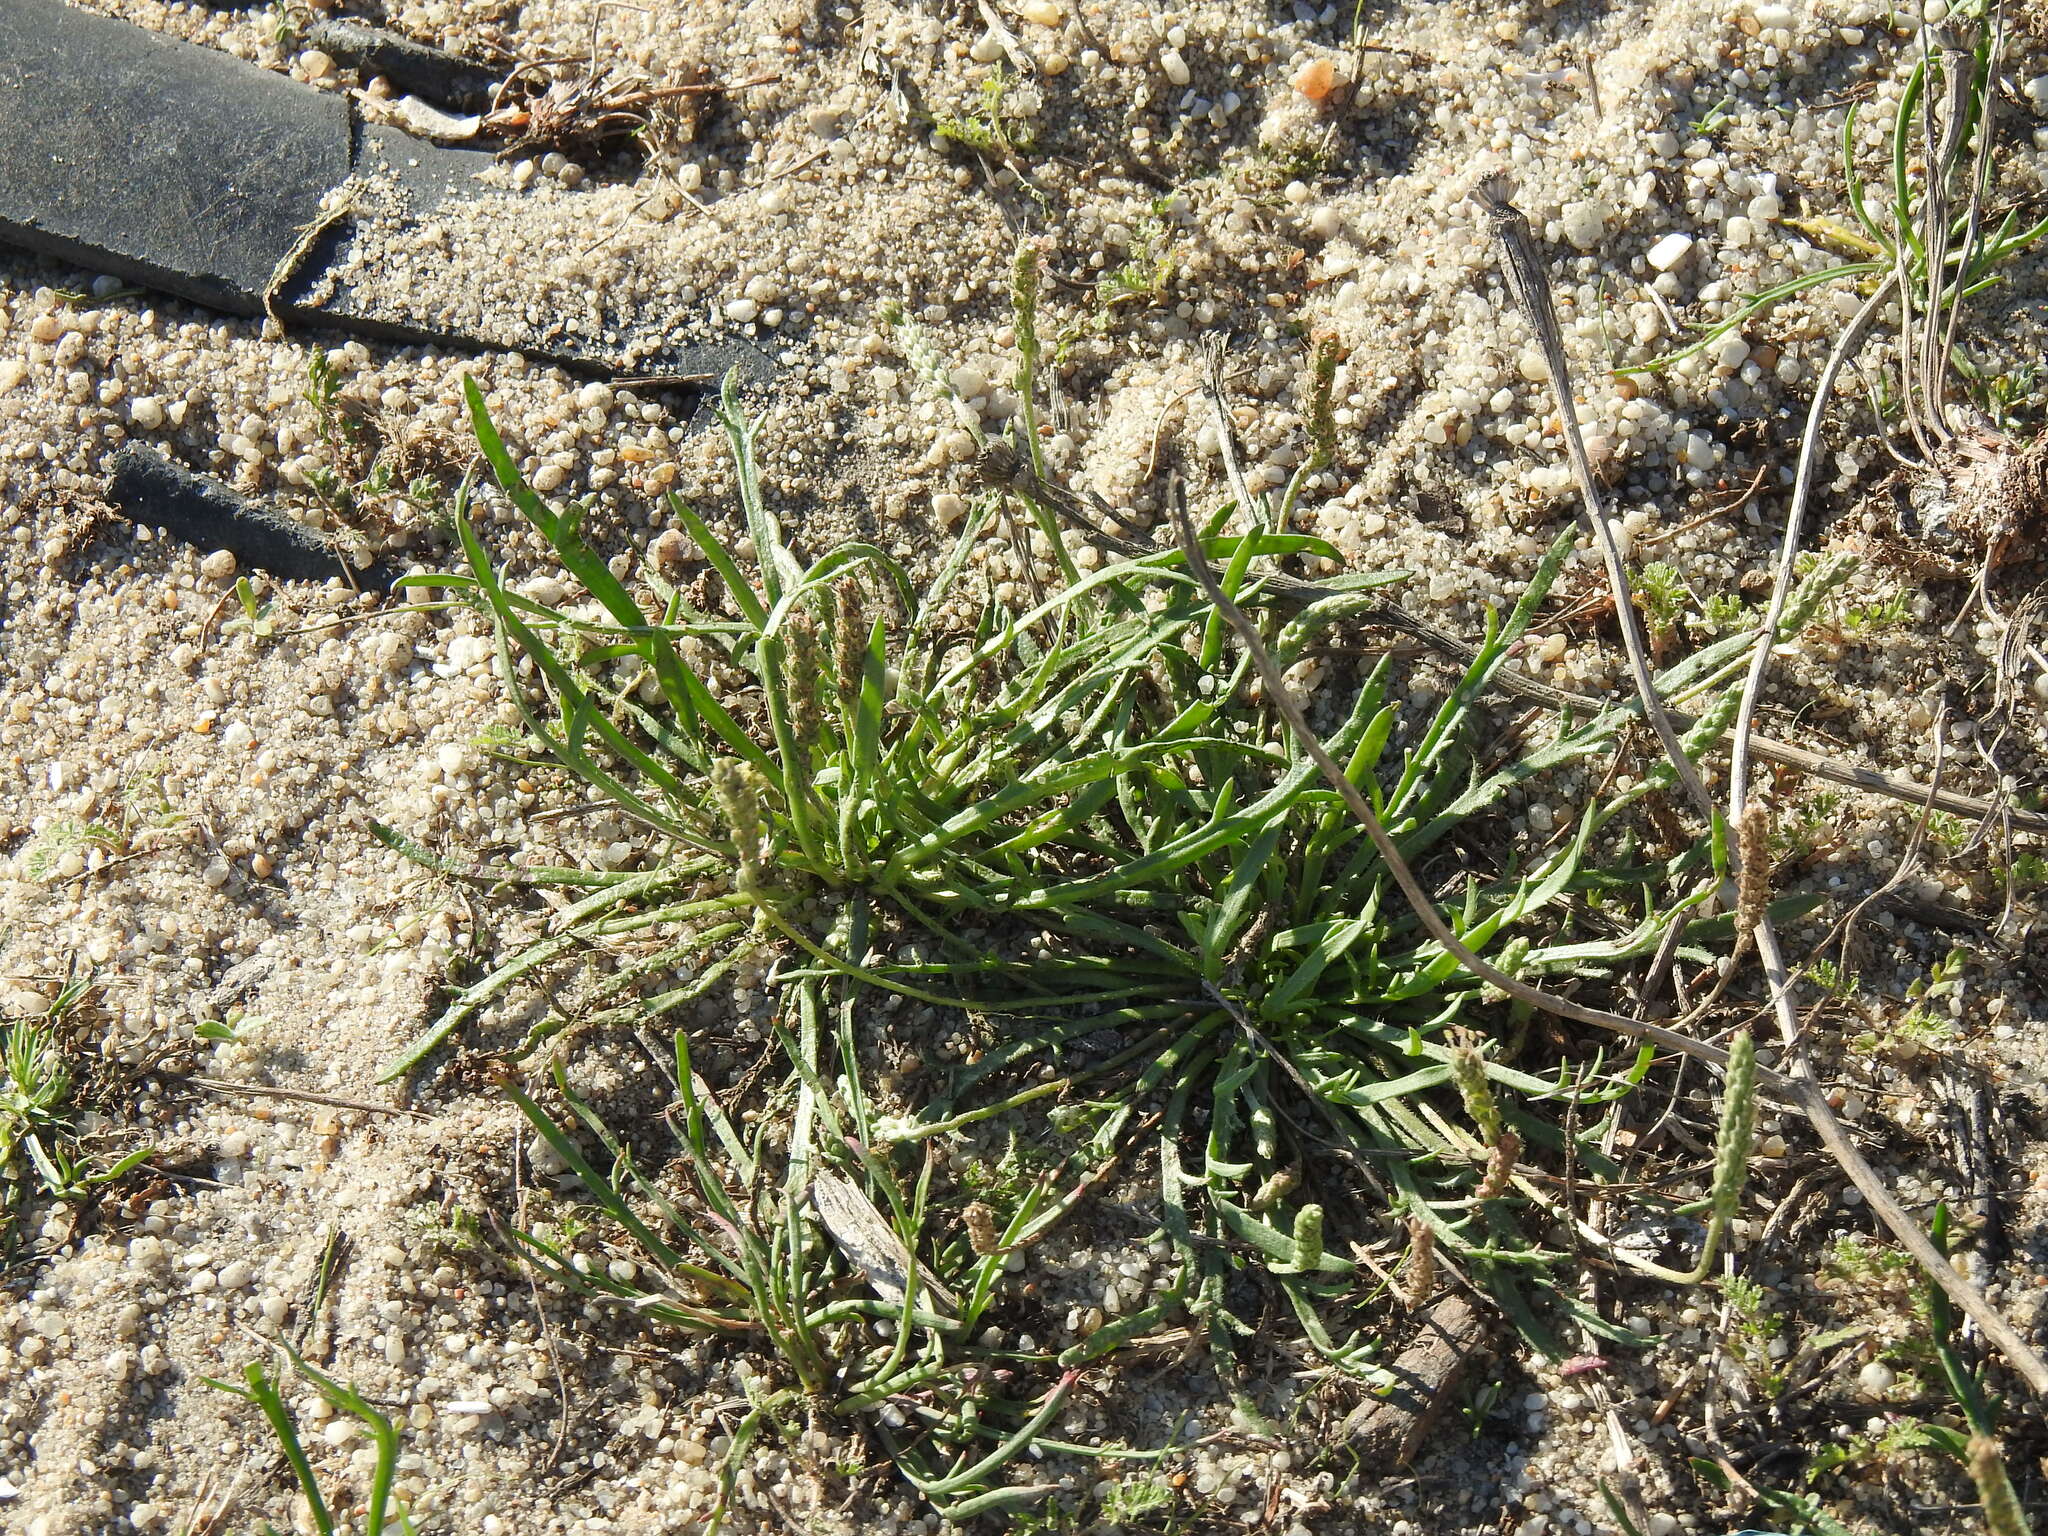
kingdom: Plantae
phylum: Tracheophyta
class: Magnoliopsida
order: Lamiales
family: Plantaginaceae
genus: Plantago
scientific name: Plantago coronopus
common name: Buck's-horn plantain
